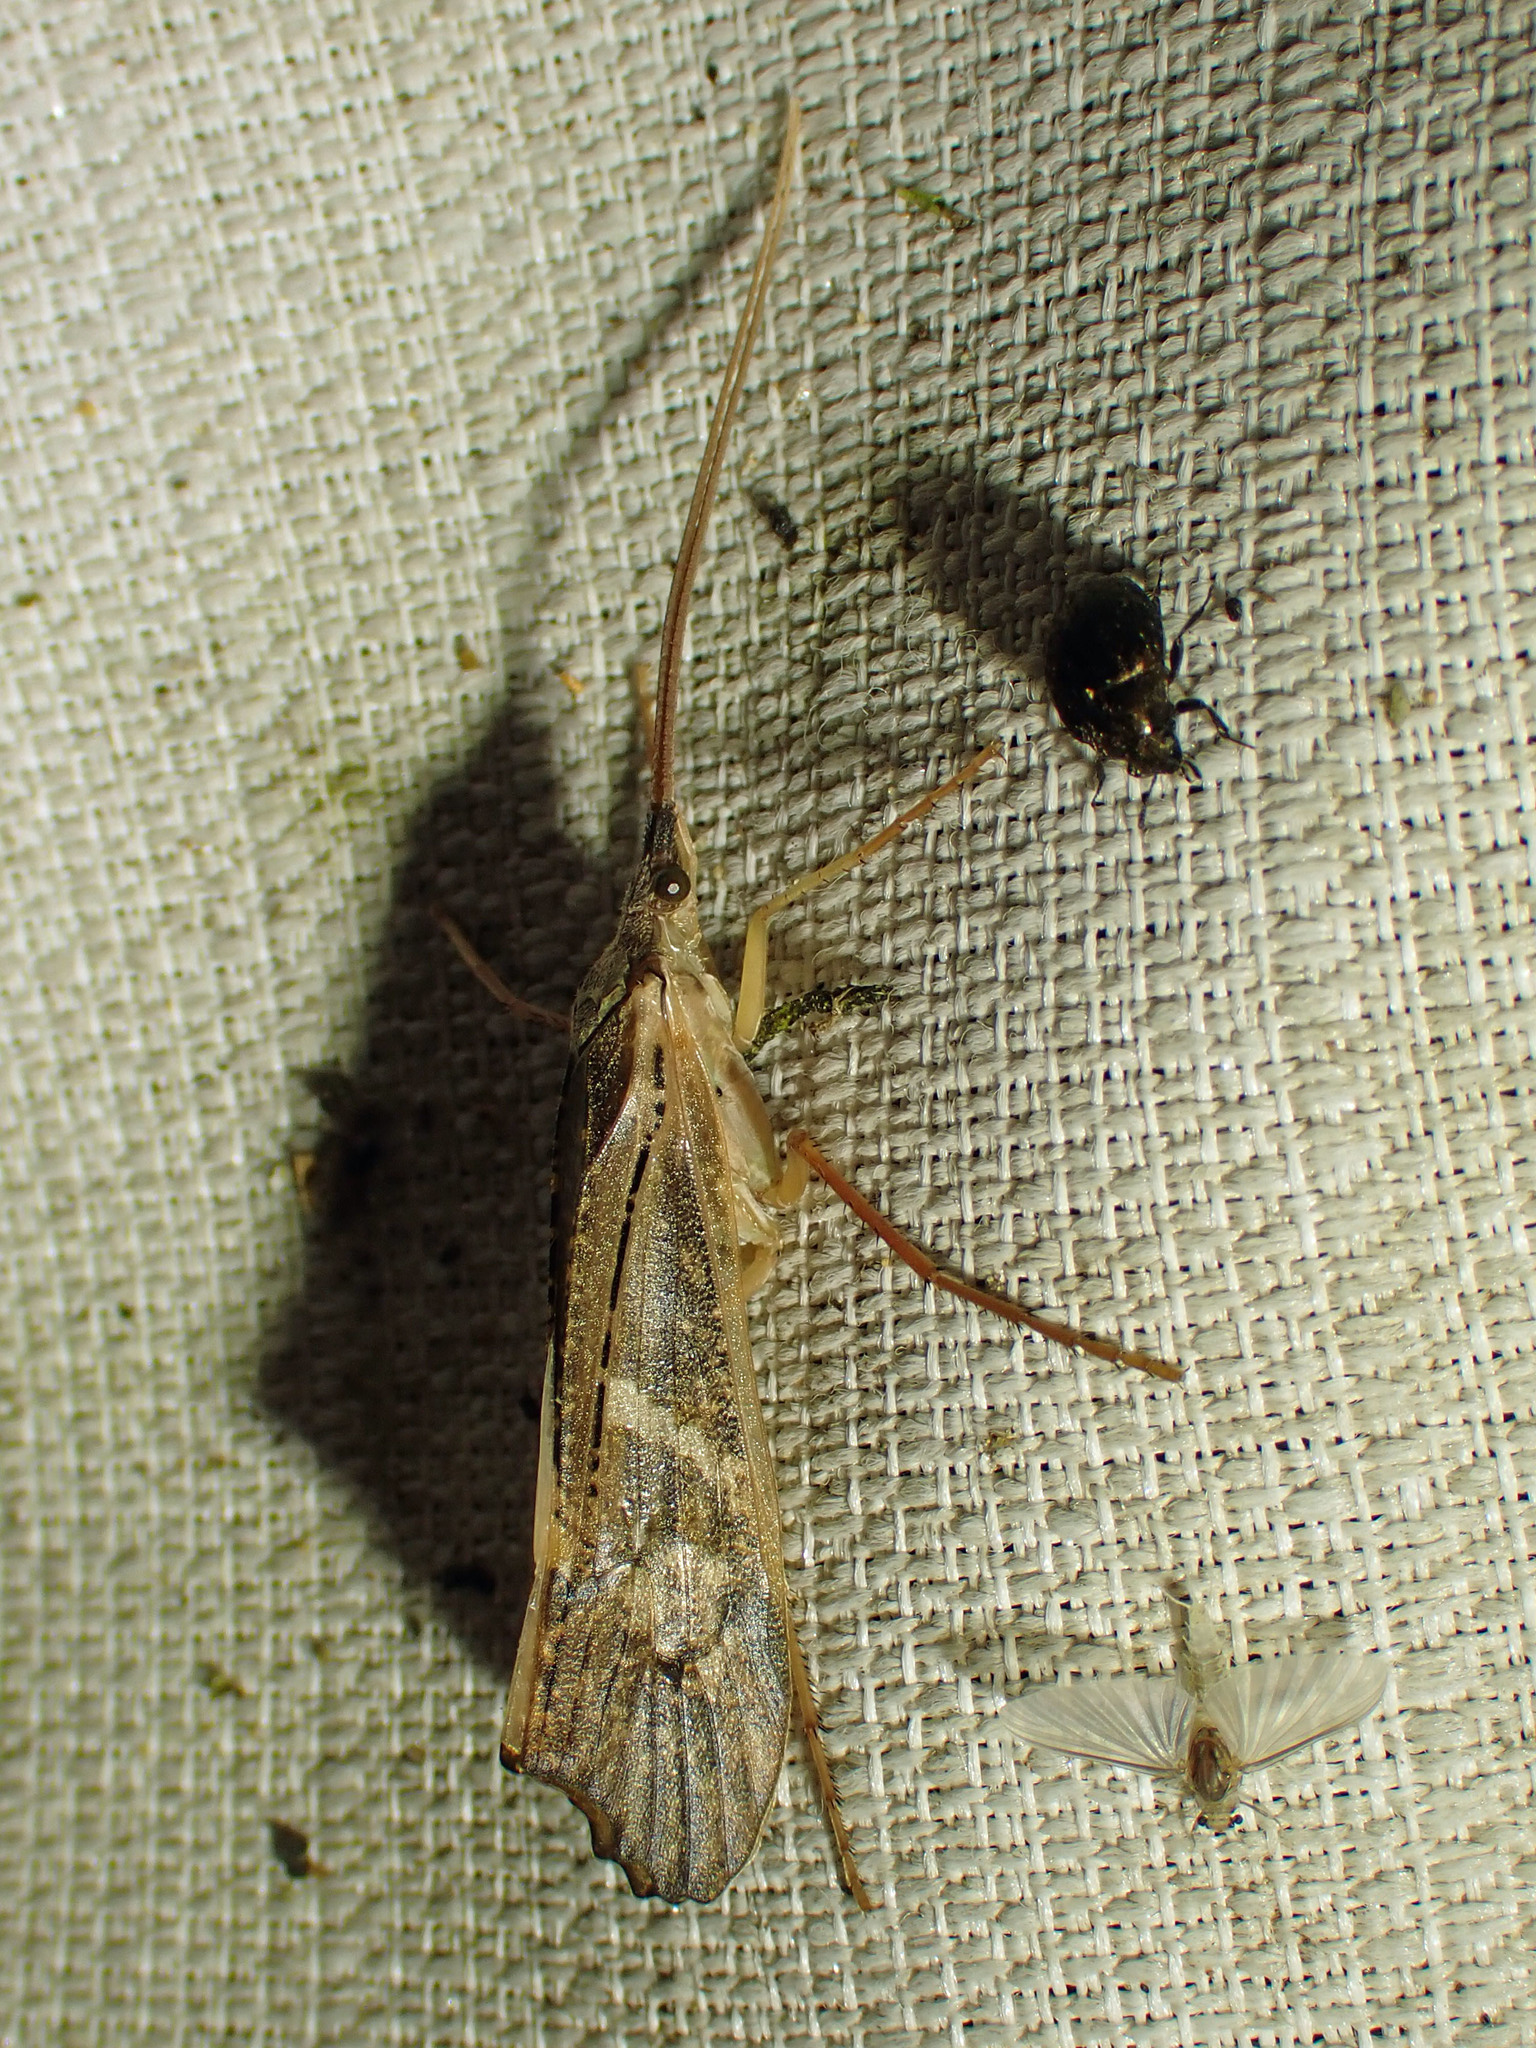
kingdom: Animalia
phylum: Arthropoda
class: Insecta
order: Trichoptera
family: Limnephilidae
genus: Nemotaulius
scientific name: Nemotaulius hostilis
